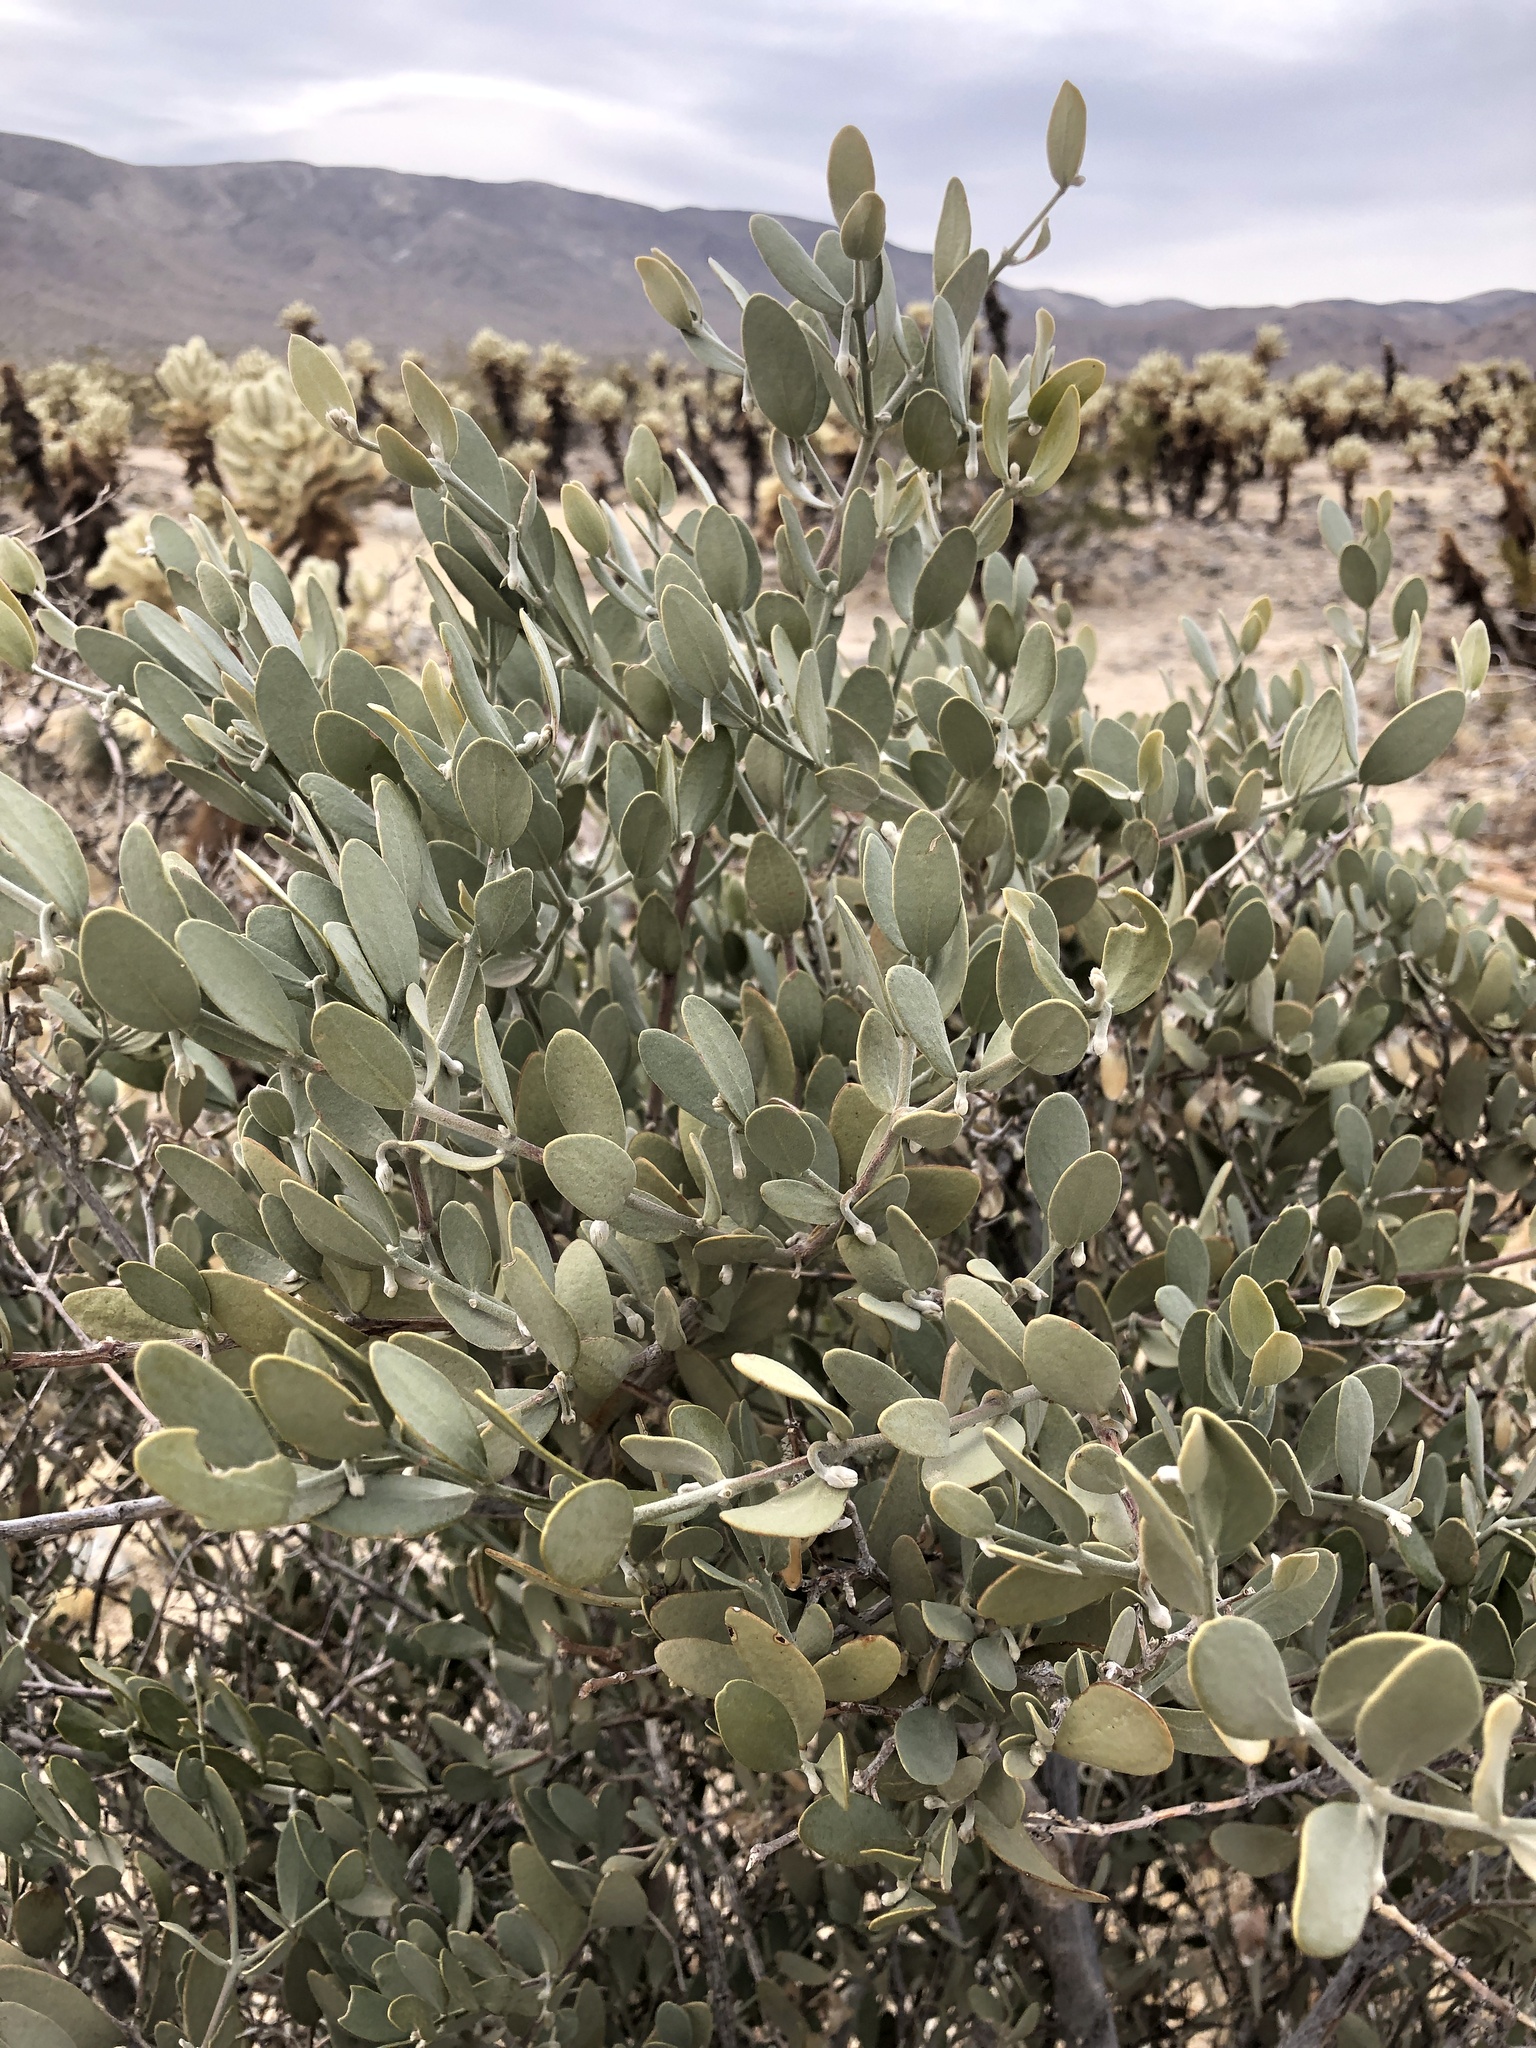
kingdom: Plantae
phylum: Tracheophyta
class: Magnoliopsida
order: Caryophyllales
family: Simmondsiaceae
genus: Simmondsia
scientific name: Simmondsia chinensis
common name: Jojoba
